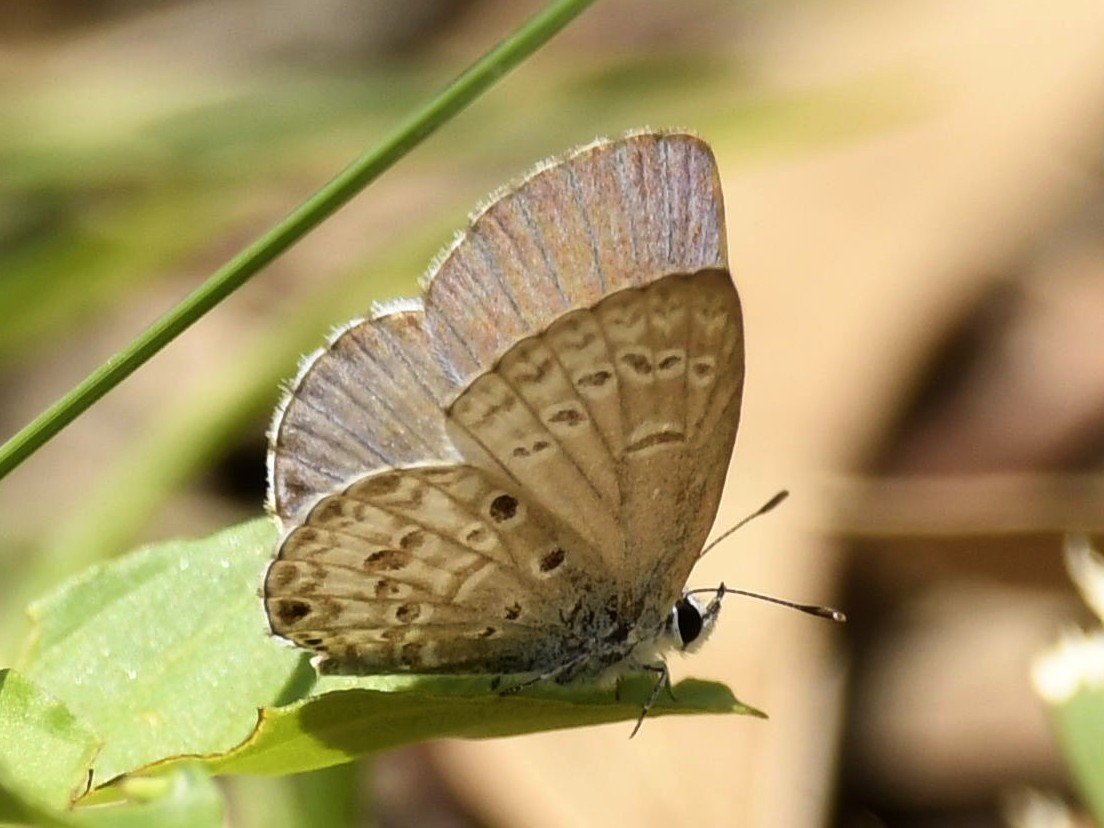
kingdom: Animalia
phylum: Arthropoda
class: Insecta
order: Lepidoptera
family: Lycaenidae
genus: Chilades
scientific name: Chilades laius
